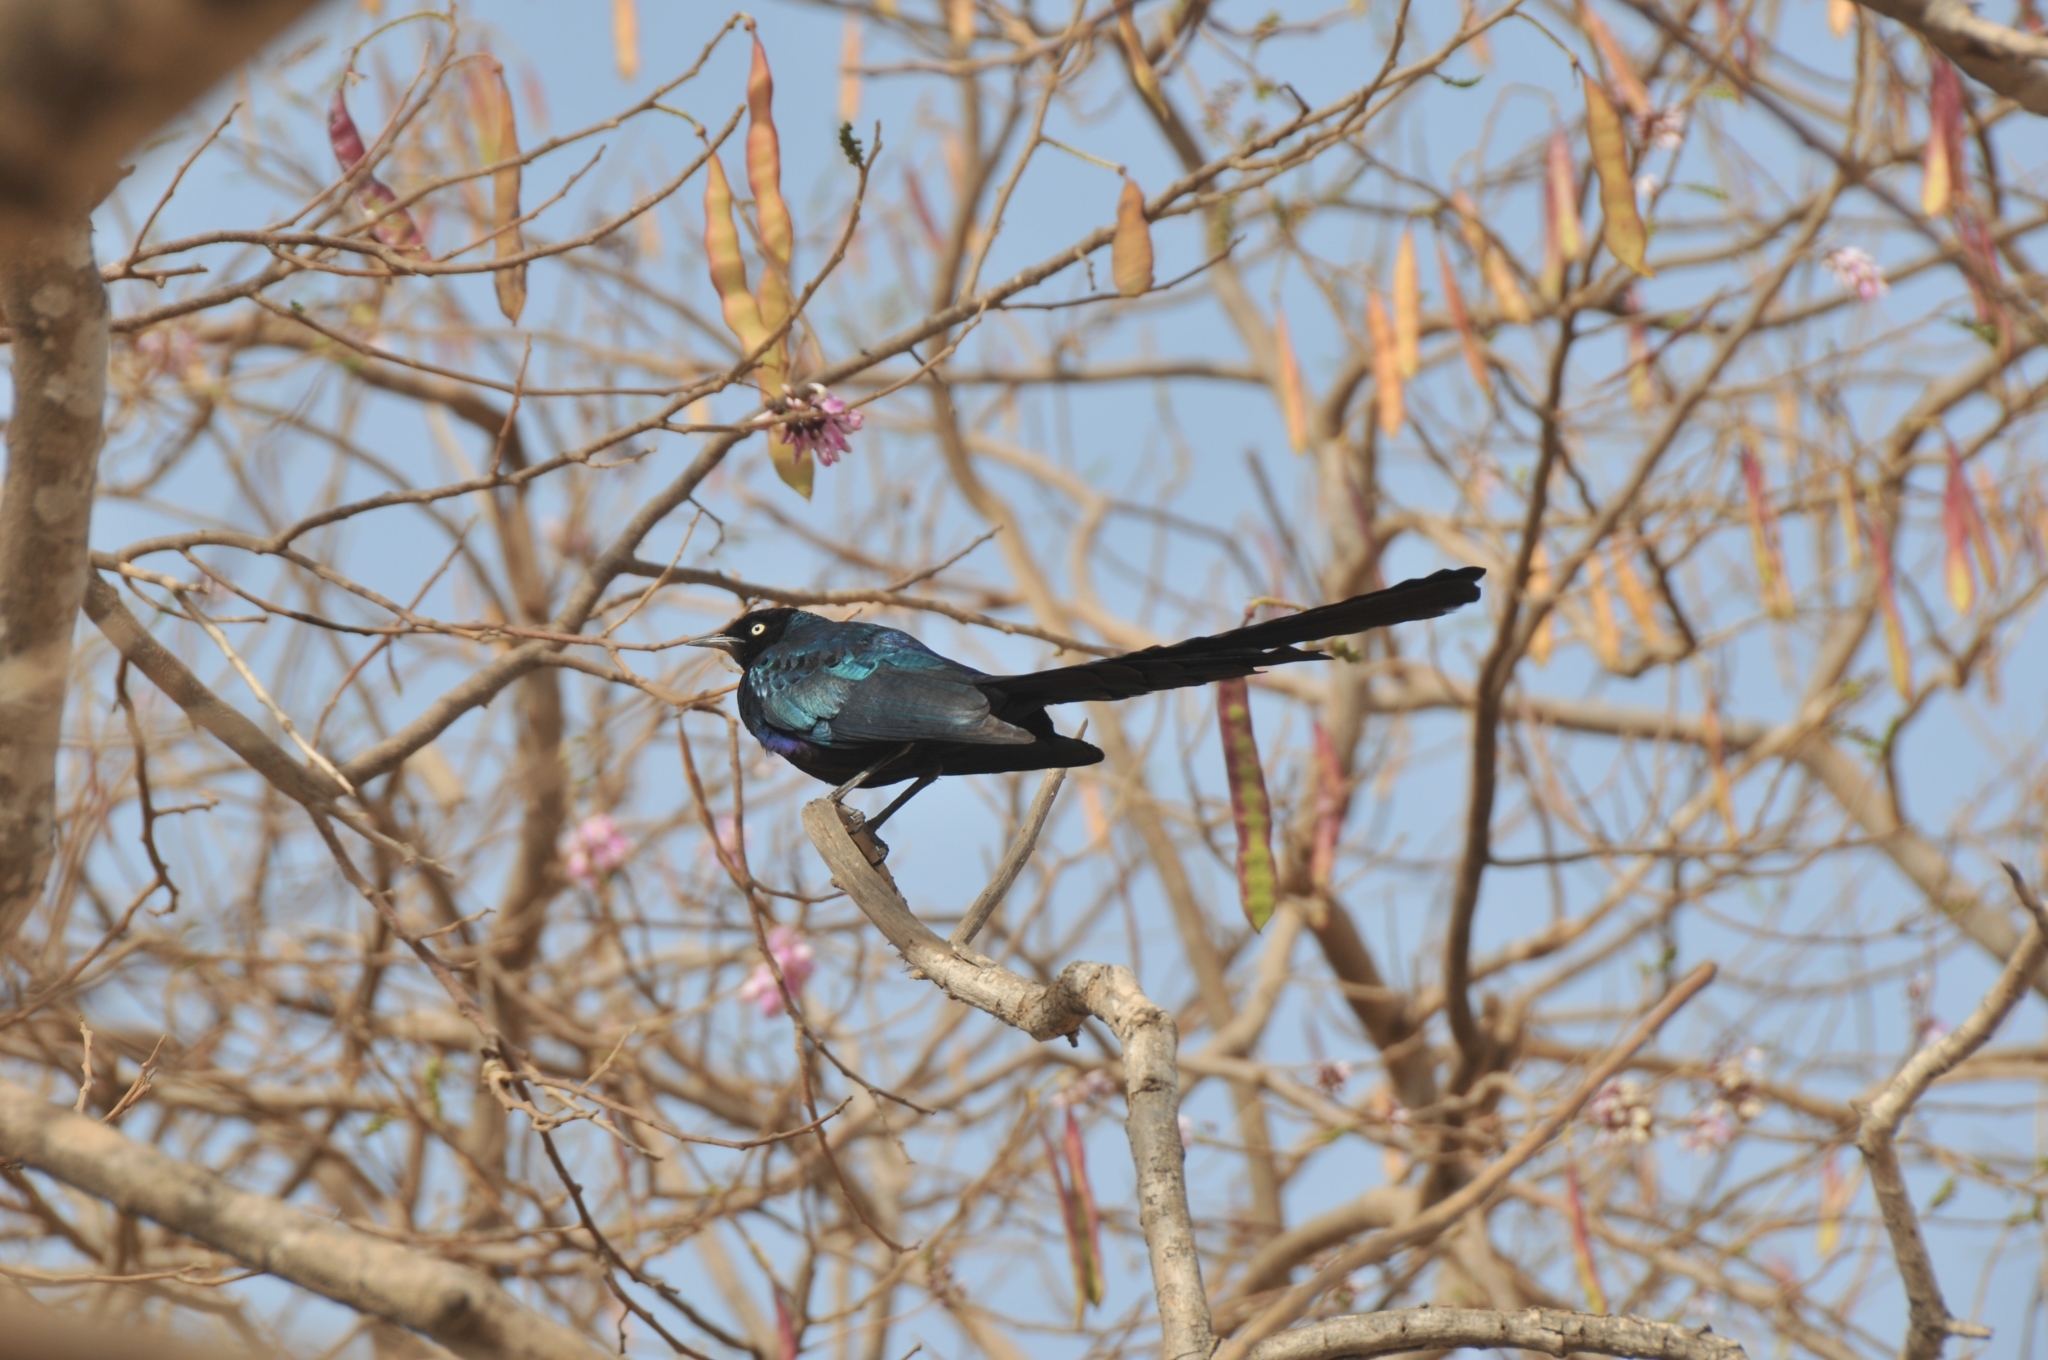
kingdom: Animalia
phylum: Chordata
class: Aves
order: Passeriformes
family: Sturnidae
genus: Lamprotornis
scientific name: Lamprotornis caudatus
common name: Long-tailed glossy starling
